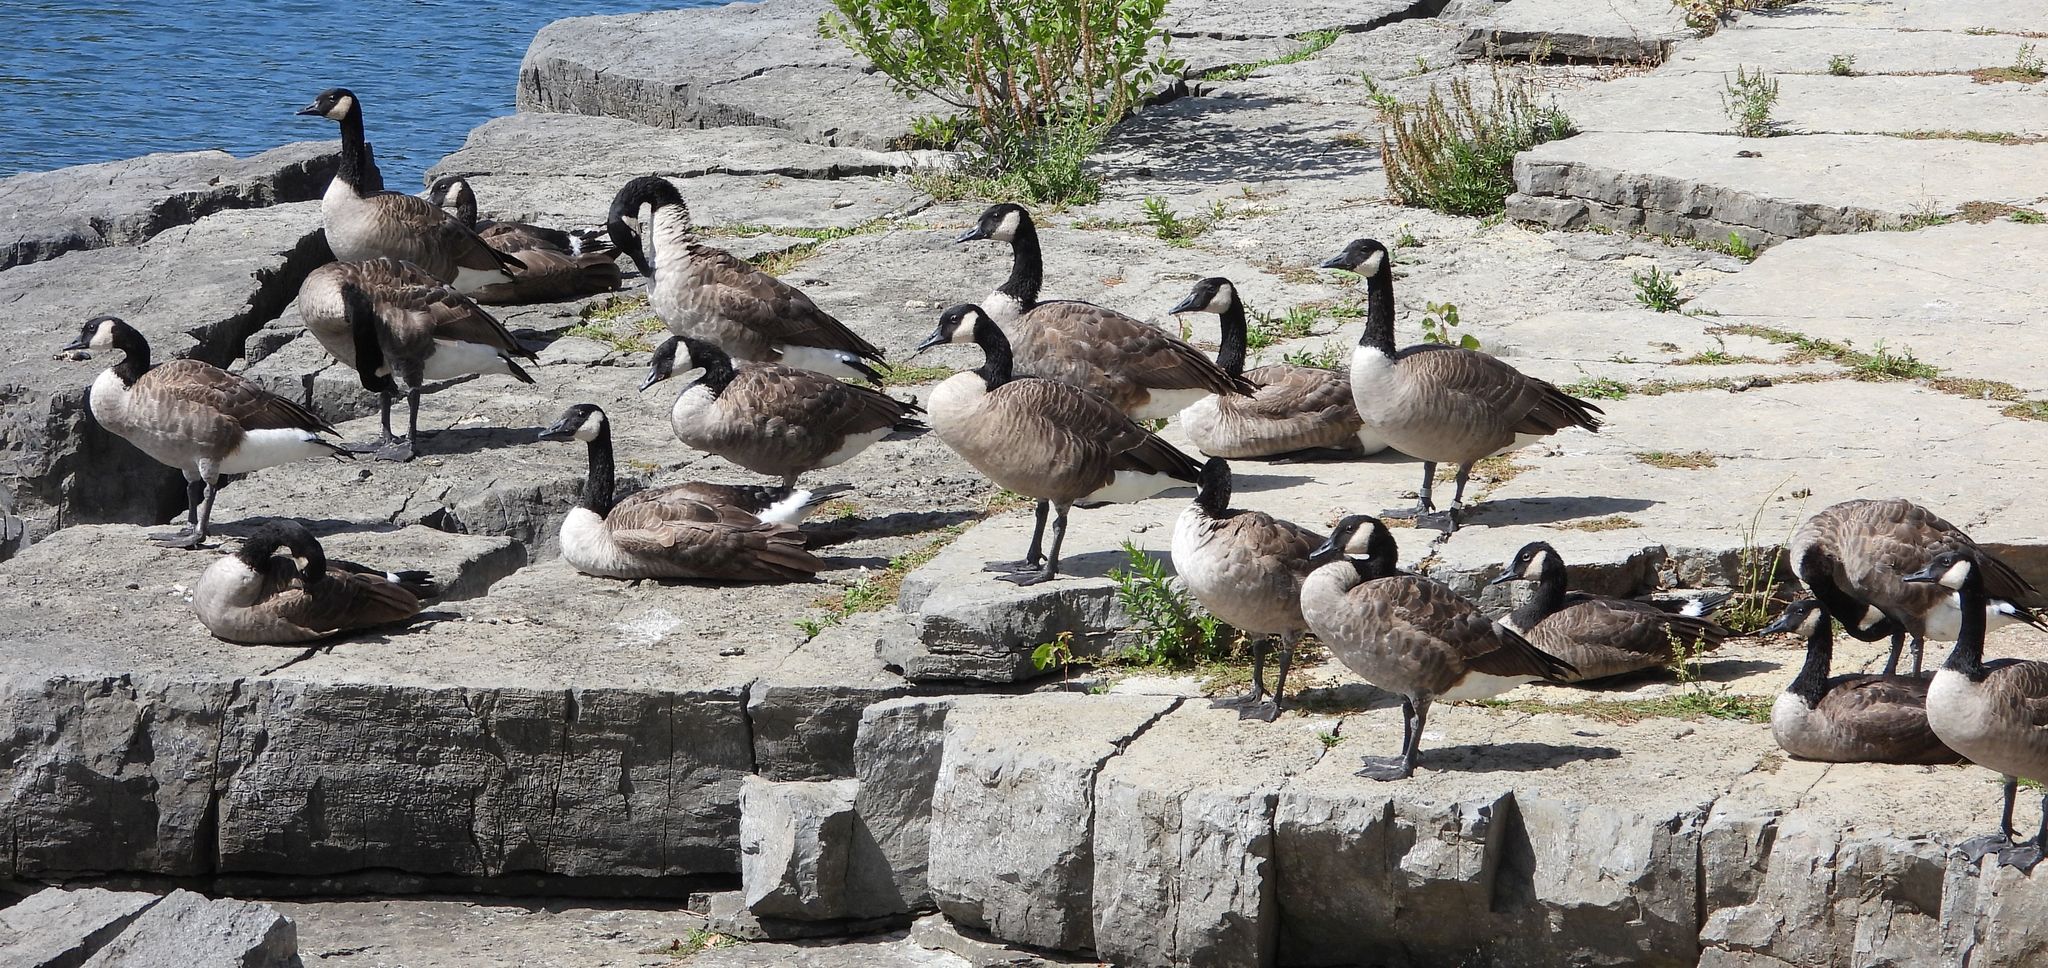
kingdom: Animalia
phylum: Chordata
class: Aves
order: Anseriformes
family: Anatidae
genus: Branta
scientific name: Branta canadensis
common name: Canada goose
